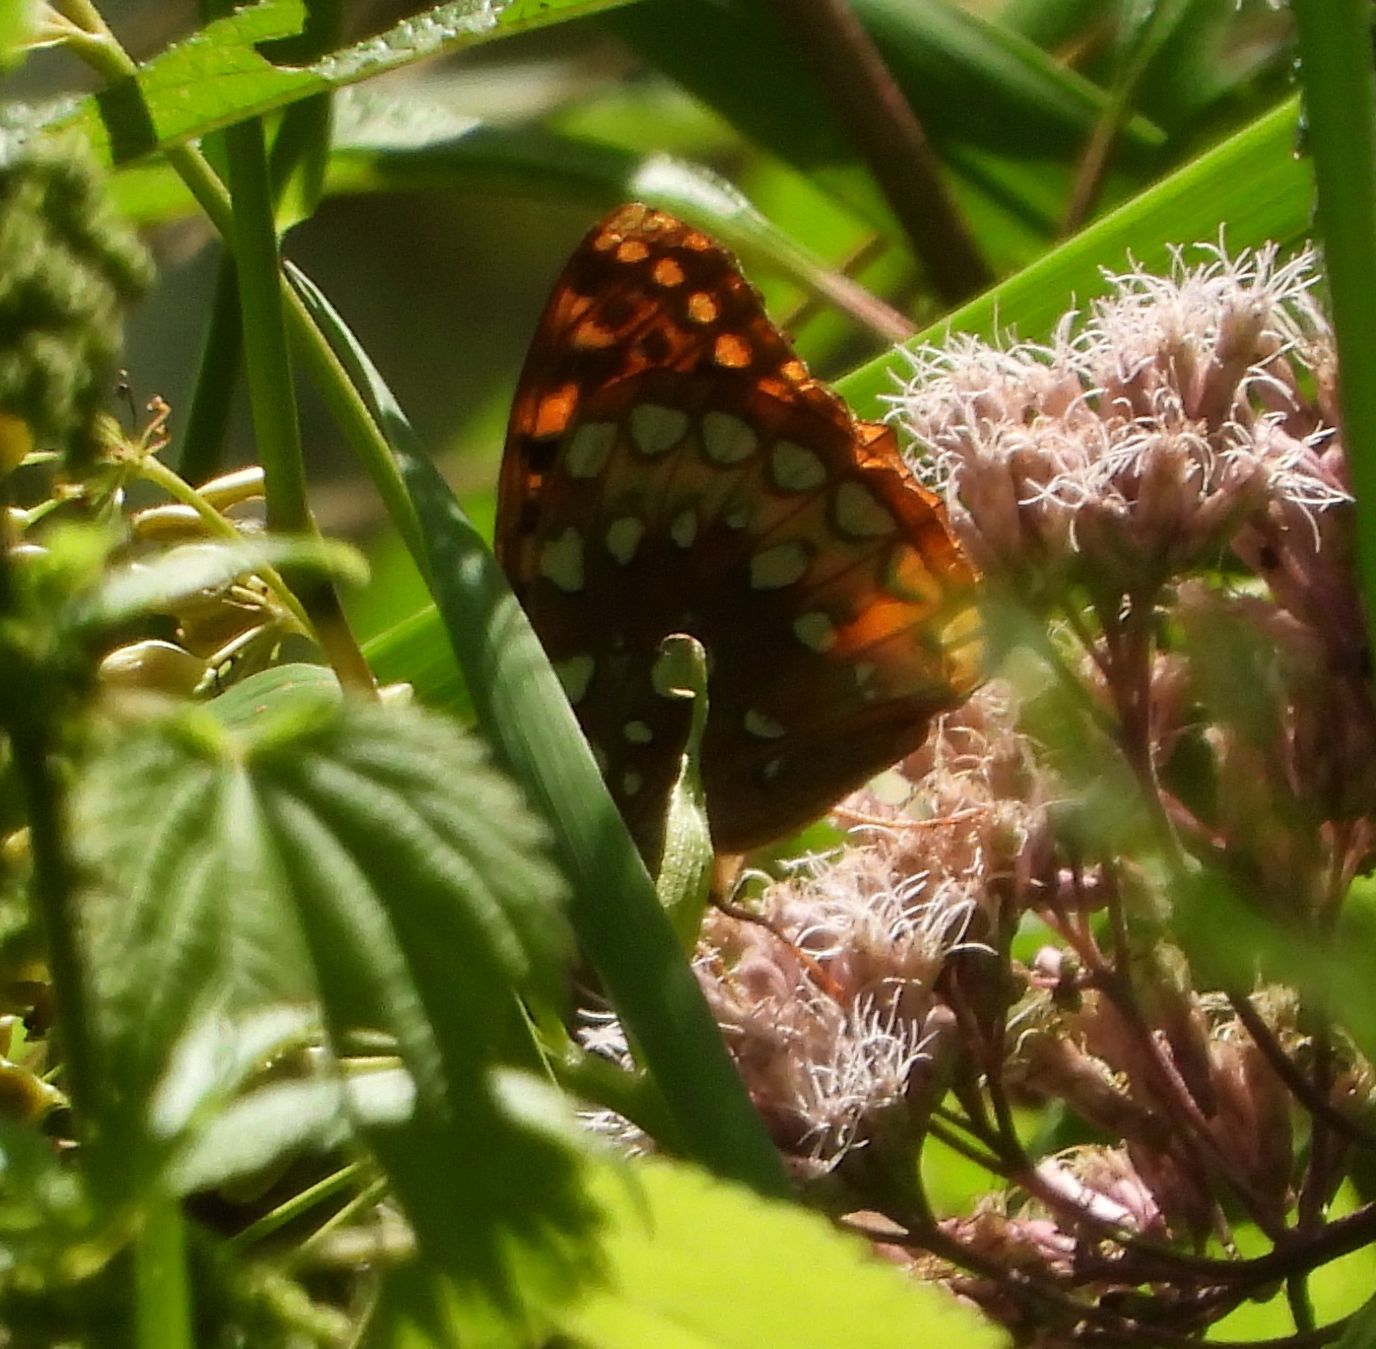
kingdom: Animalia
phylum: Arthropoda
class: Insecta
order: Lepidoptera
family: Nymphalidae
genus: Speyeria
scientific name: Speyeria cybele
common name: Great spangled fritillary
